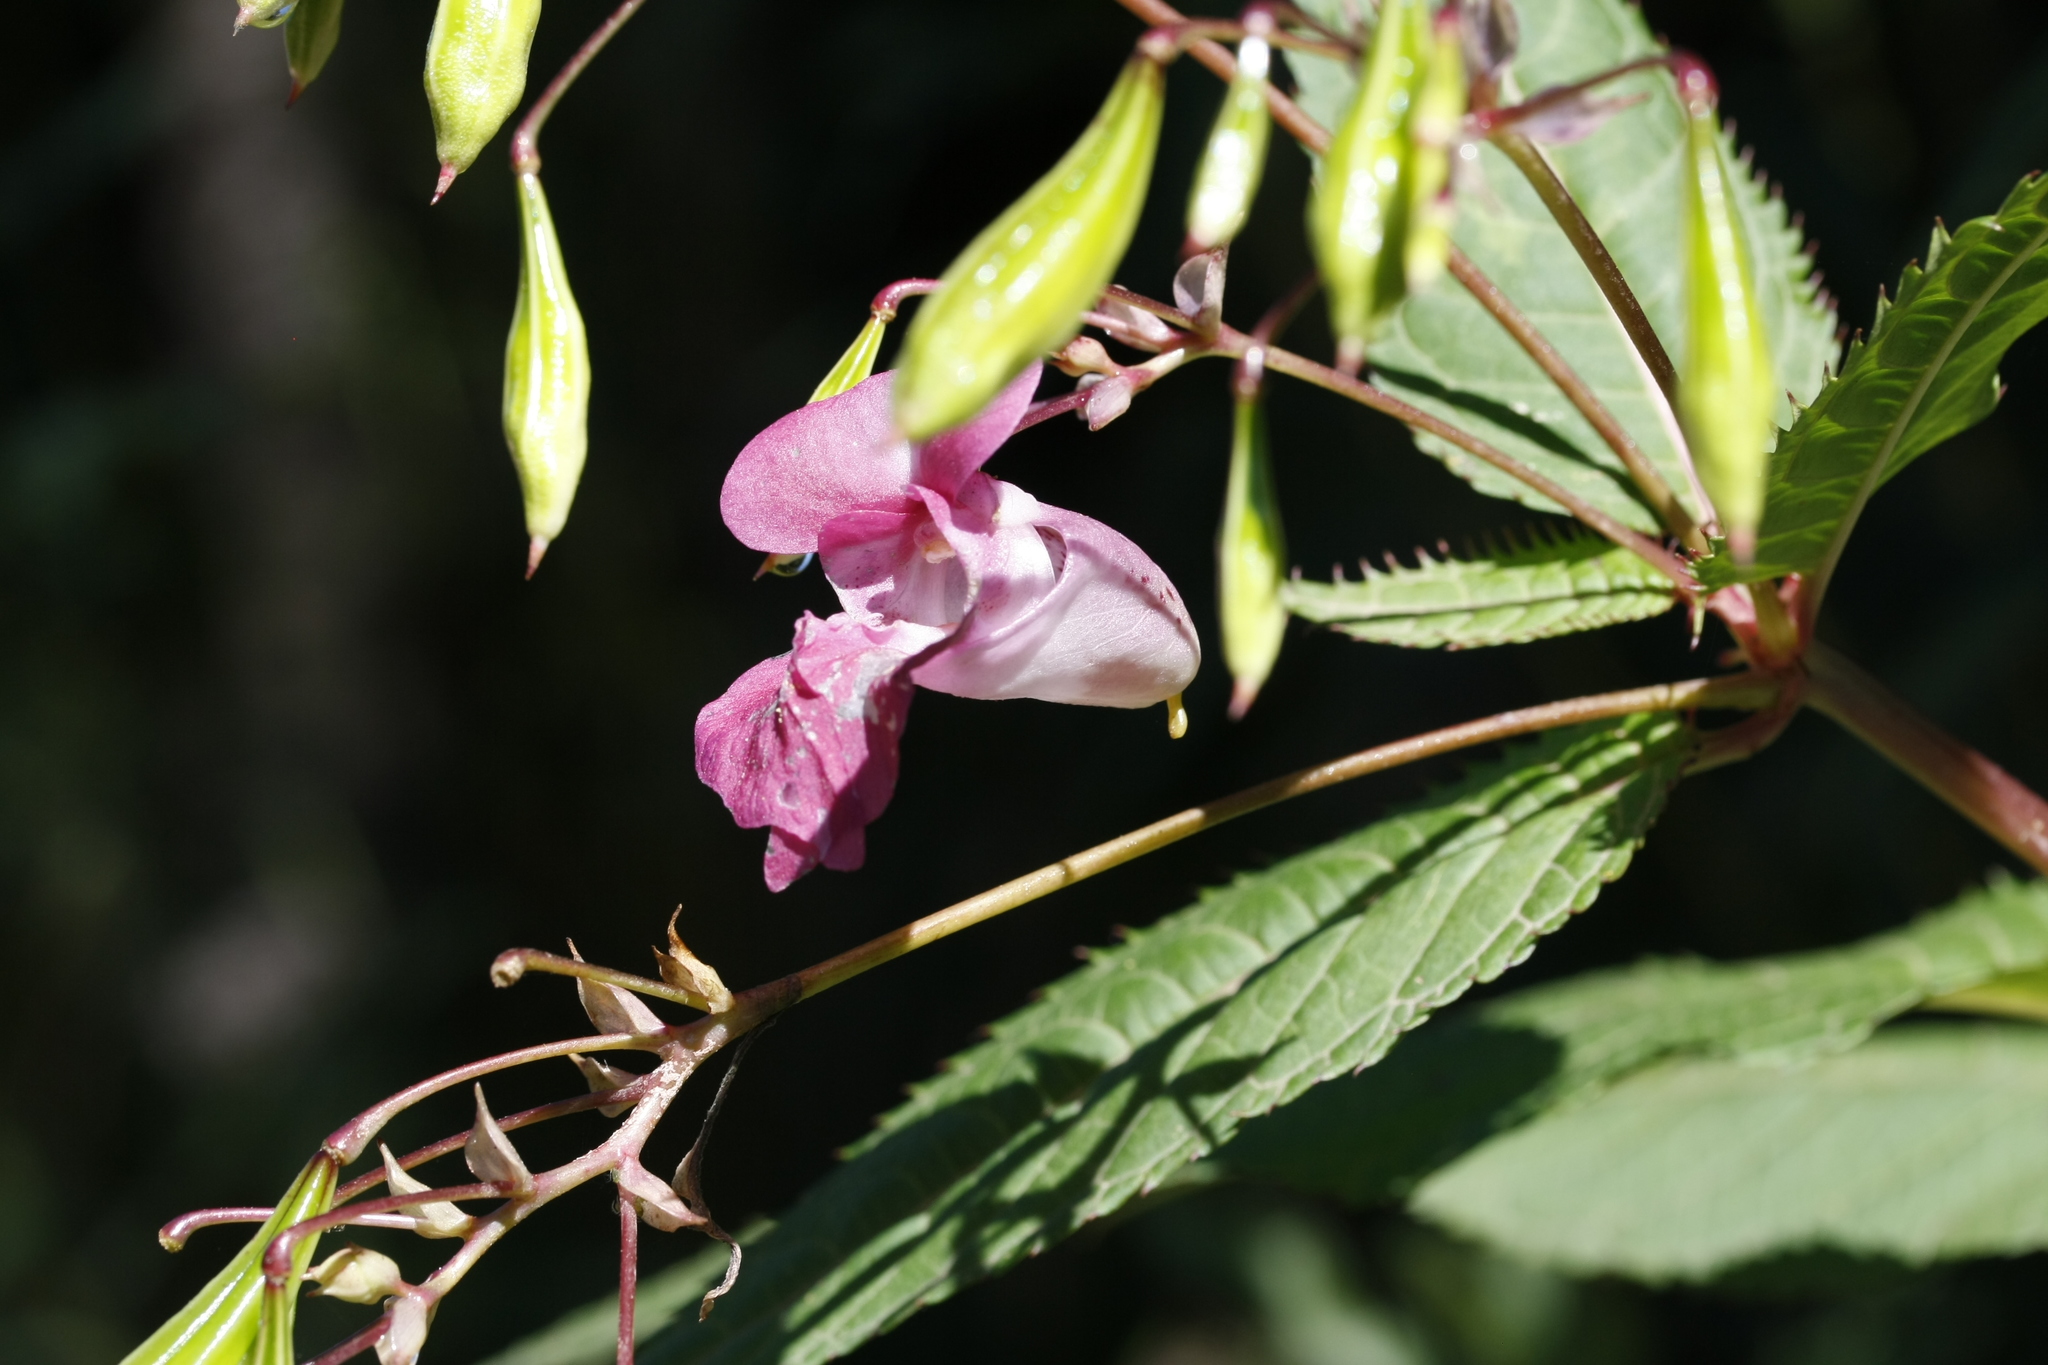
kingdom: Plantae
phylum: Tracheophyta
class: Magnoliopsida
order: Ericales
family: Balsaminaceae
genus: Impatiens
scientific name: Impatiens glandulifera
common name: Himalayan balsam
